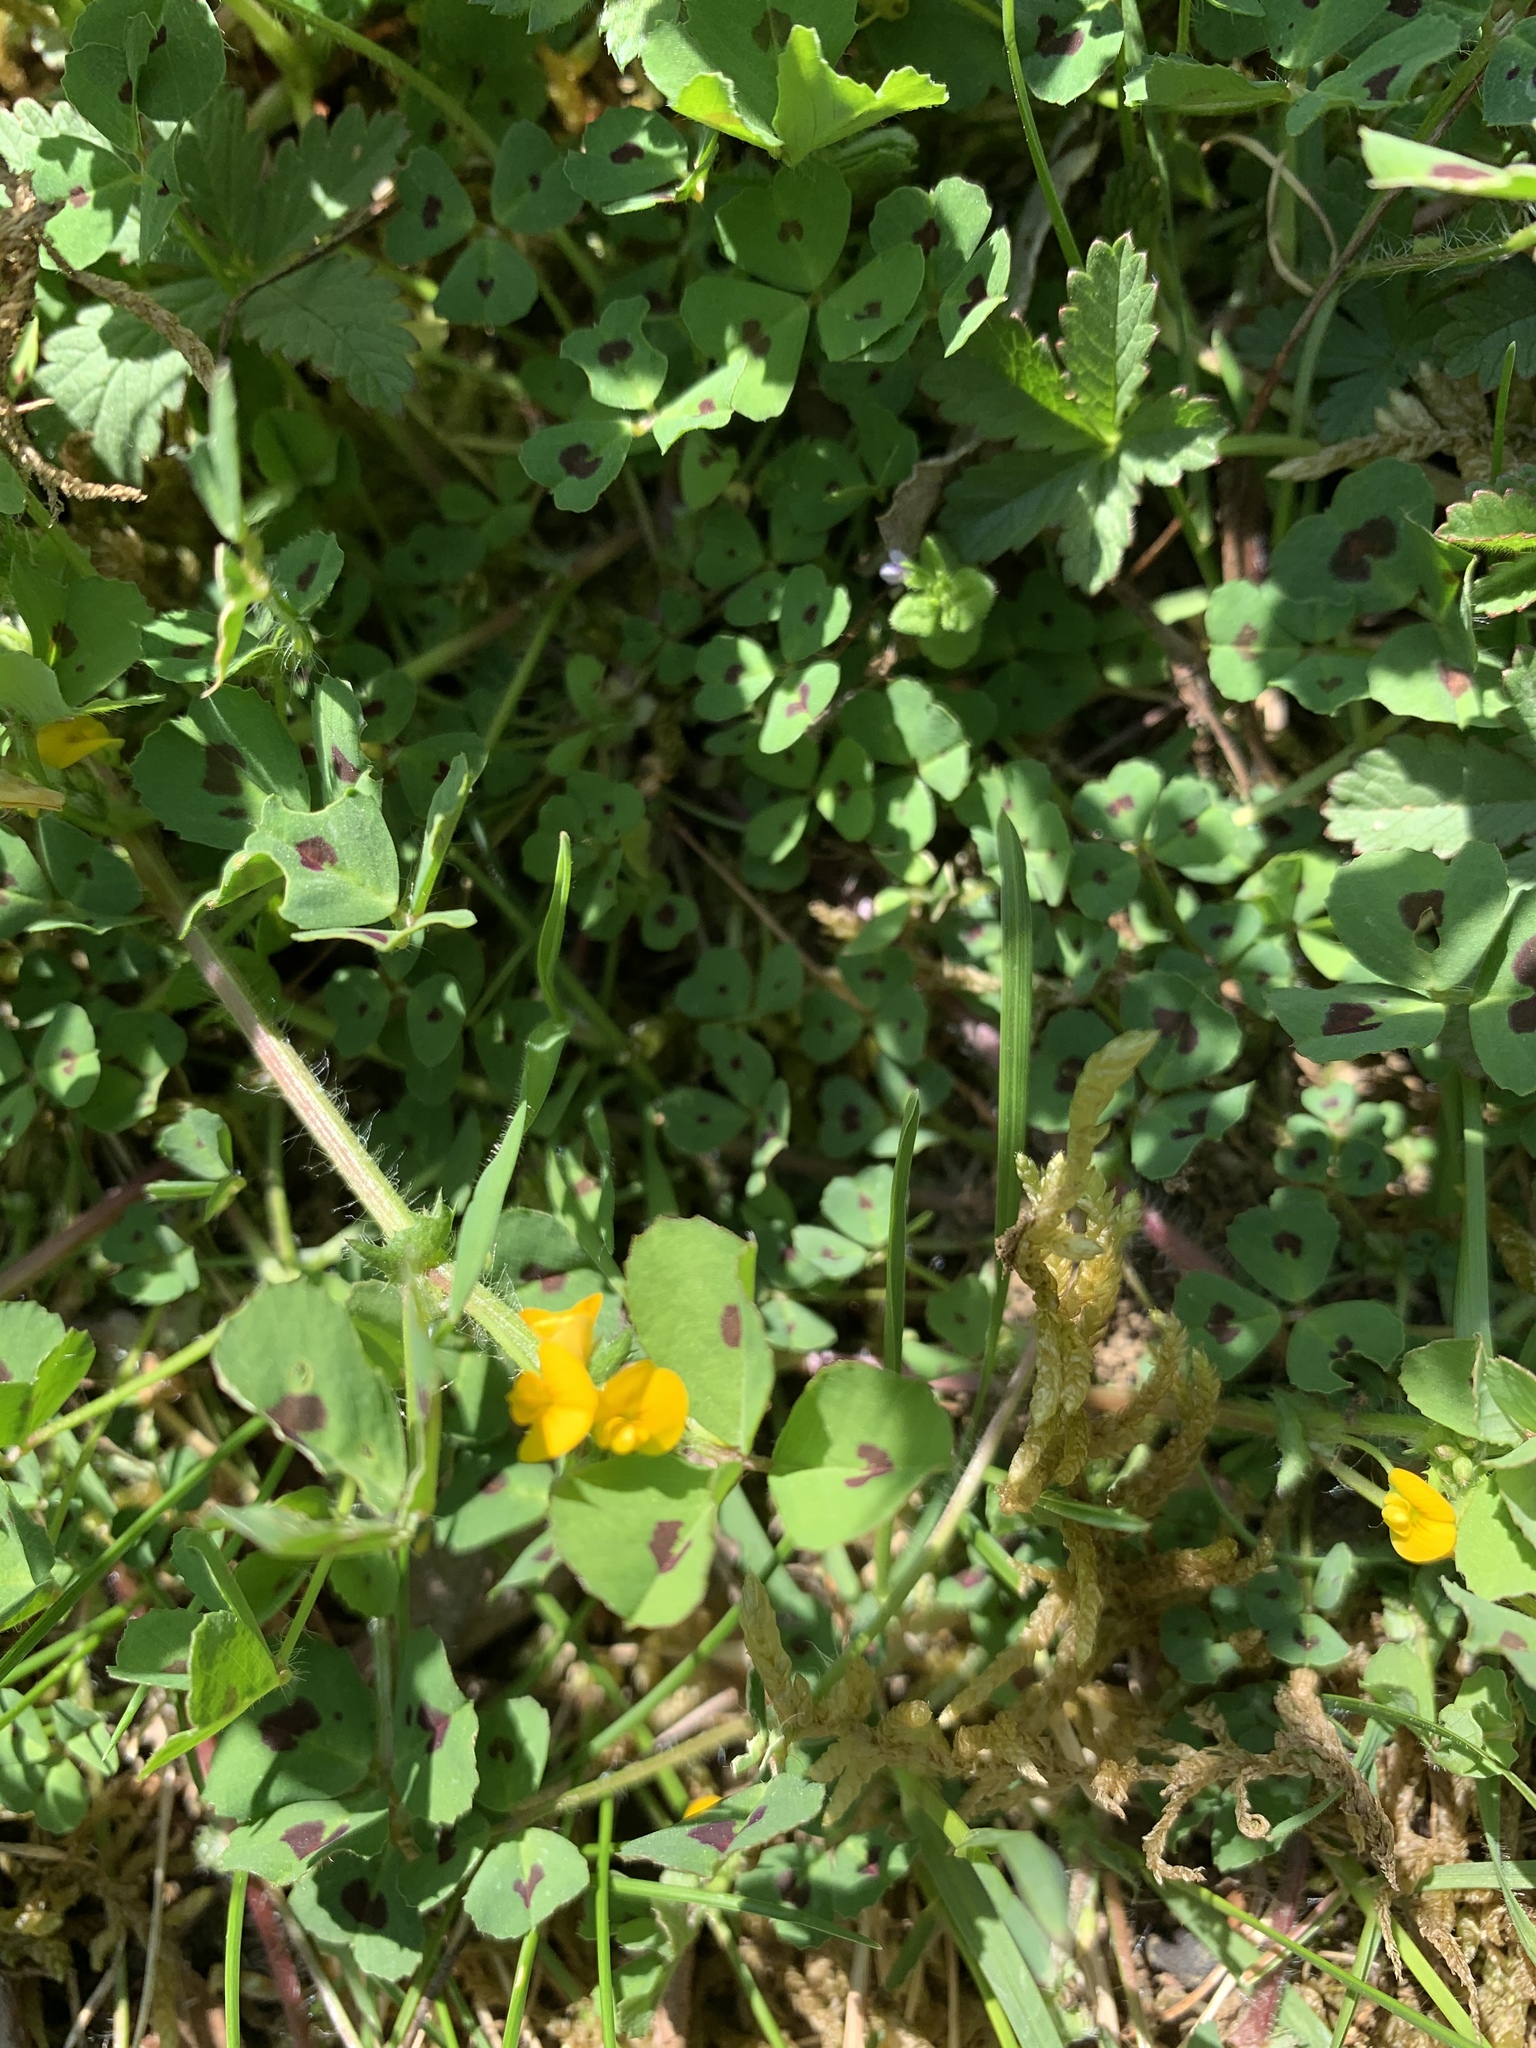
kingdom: Plantae
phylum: Tracheophyta
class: Magnoliopsida
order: Fabales
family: Fabaceae
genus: Medicago
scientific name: Medicago arabica
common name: Spotted medick
